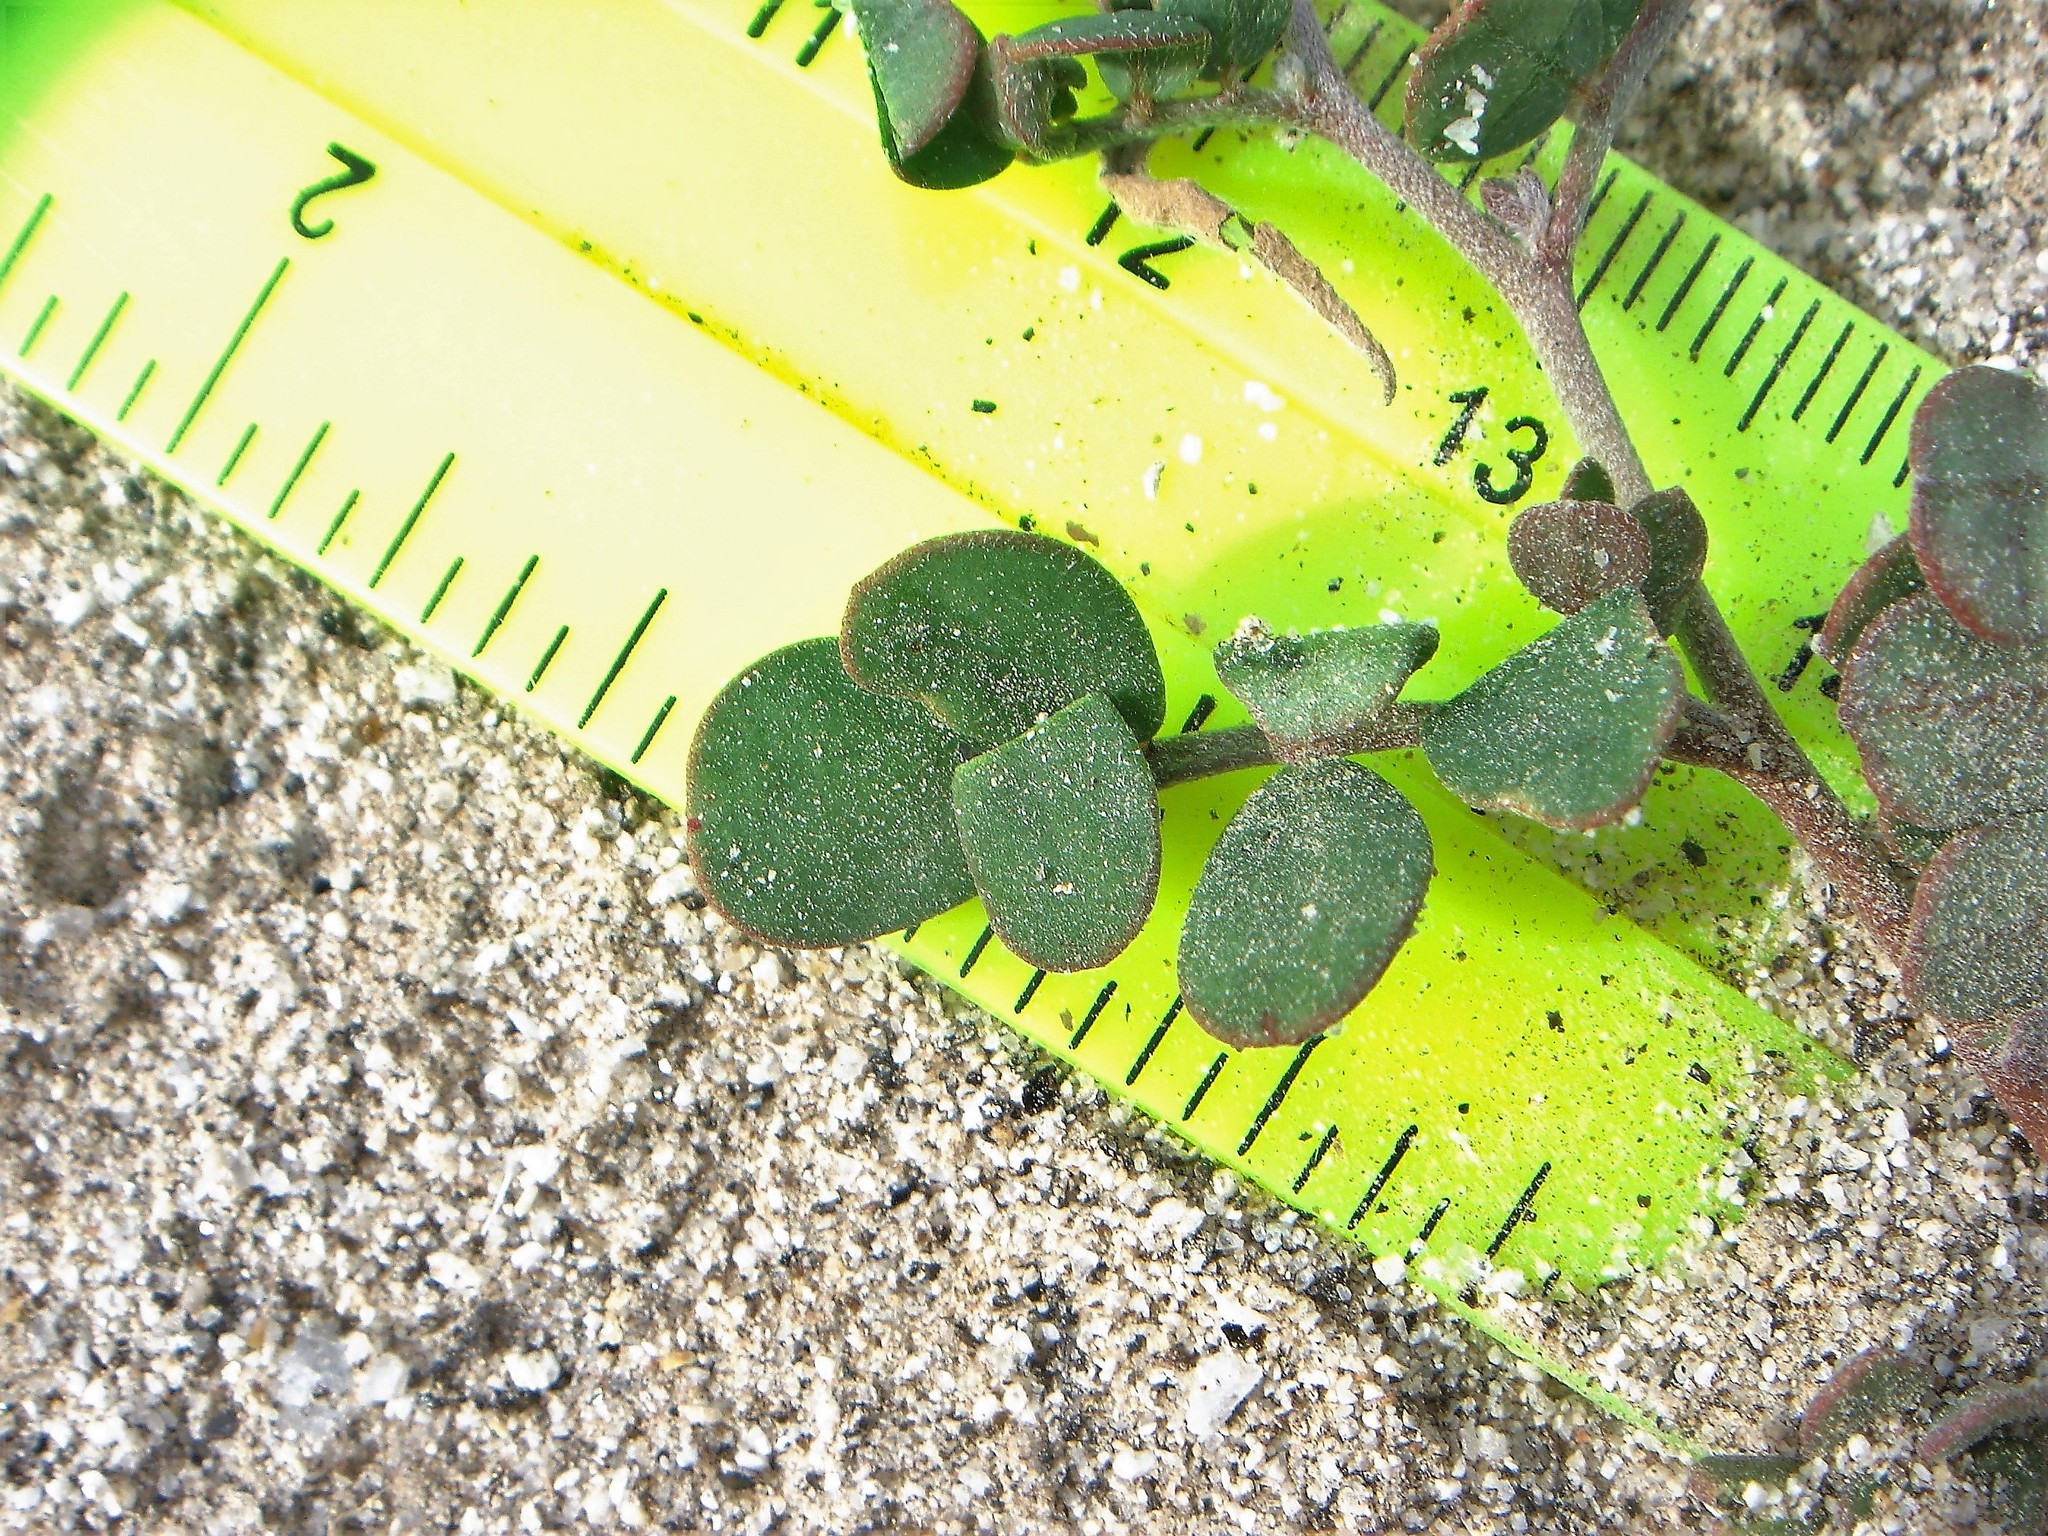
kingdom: Plantae
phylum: Tracheophyta
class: Magnoliopsida
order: Fabales
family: Fabaceae
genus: Acmispon
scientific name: Acmispon maritimus
